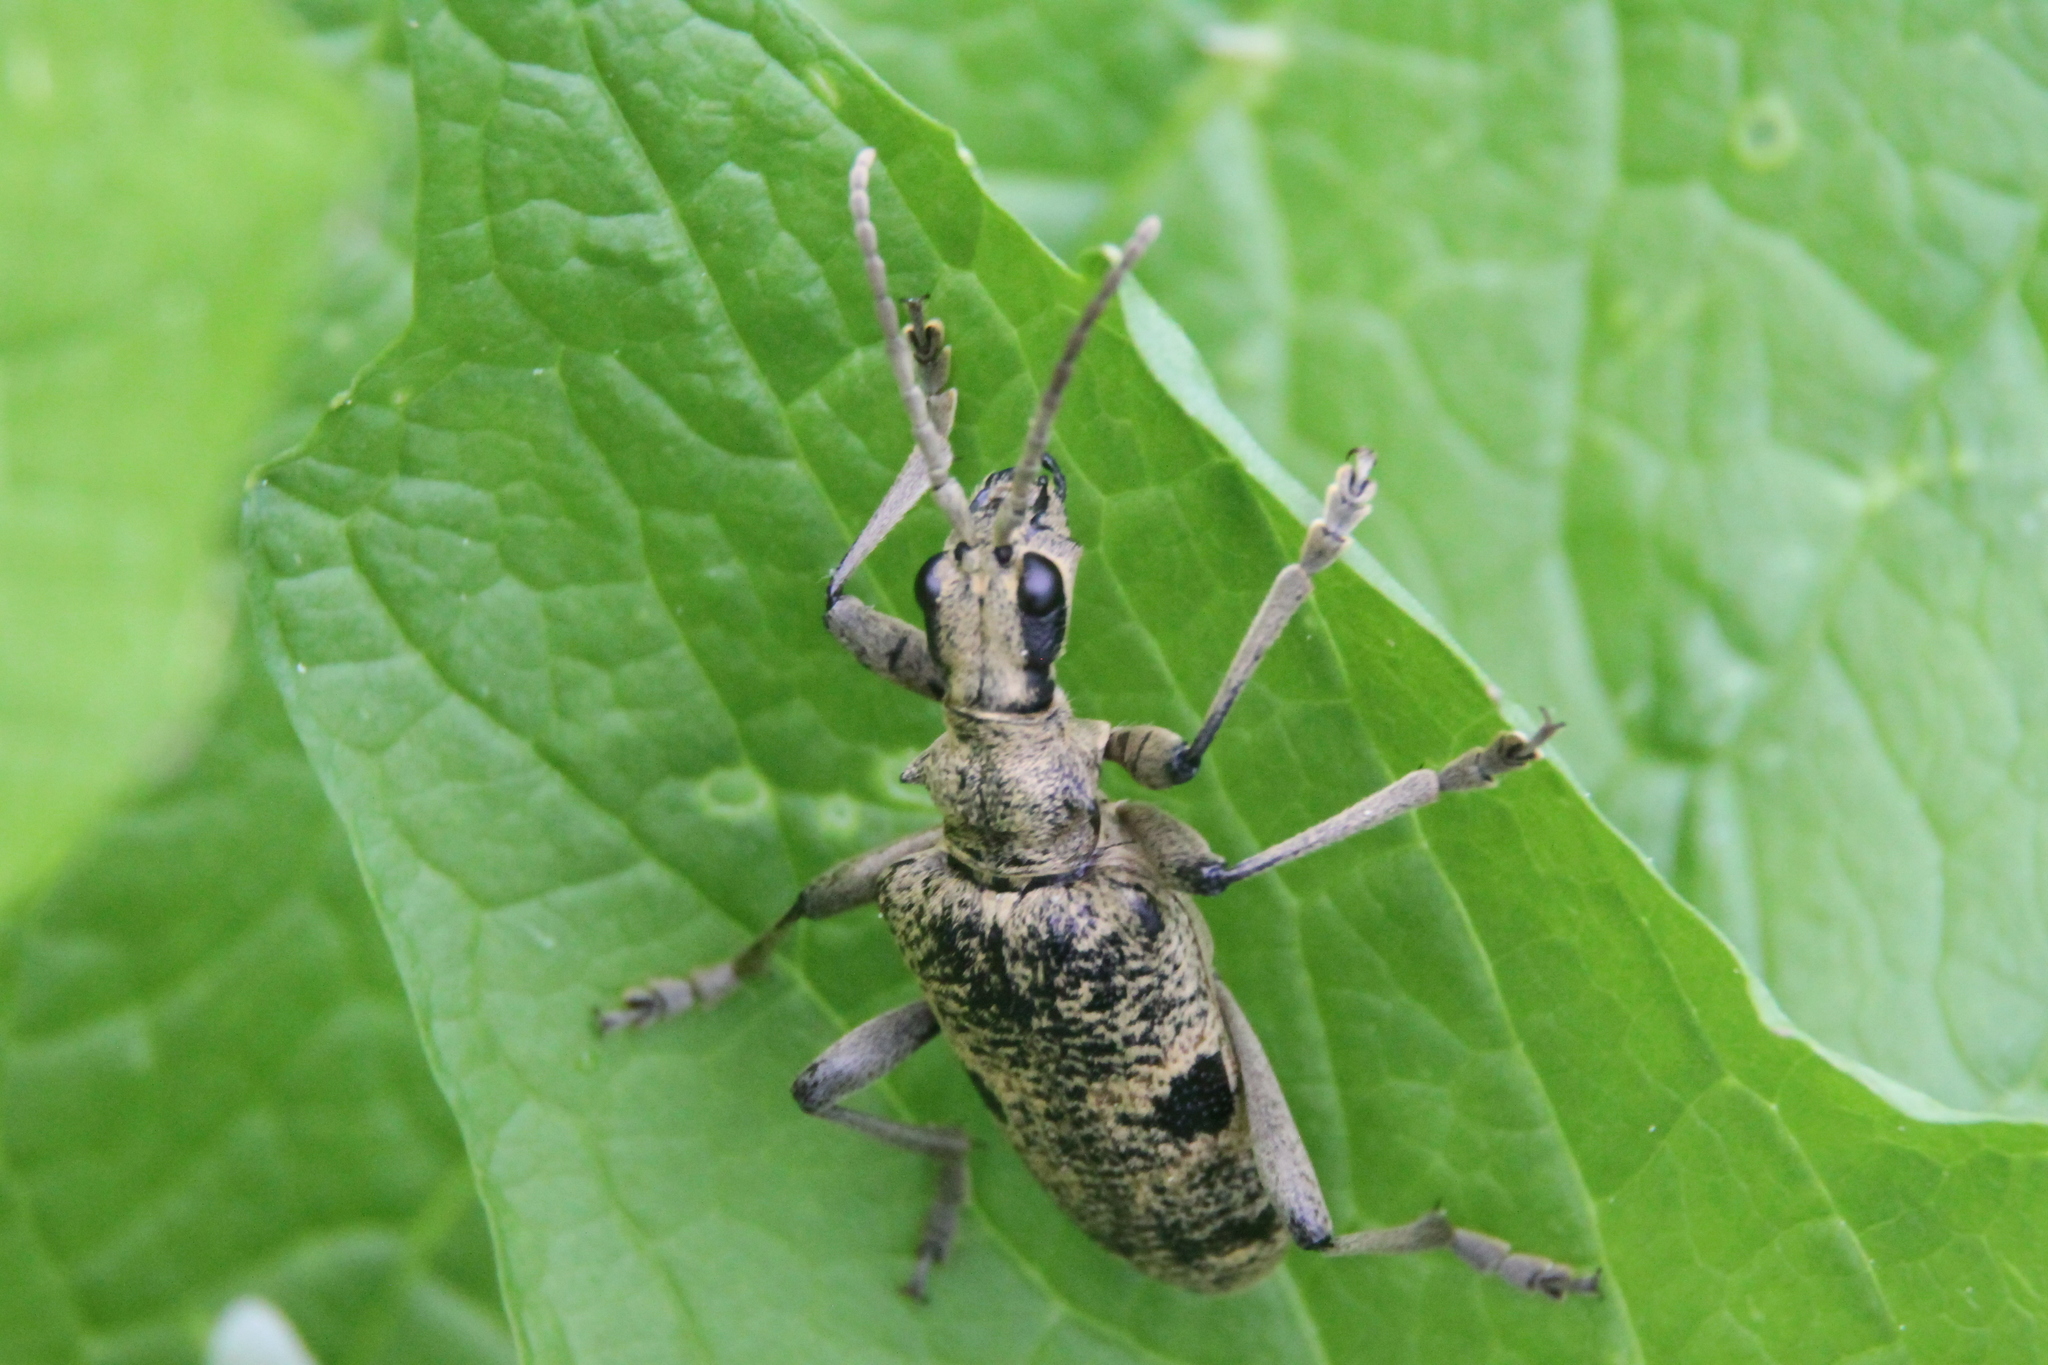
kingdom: Animalia
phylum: Arthropoda
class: Insecta
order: Coleoptera
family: Cerambycidae
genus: Rhagium
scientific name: Rhagium mordax
